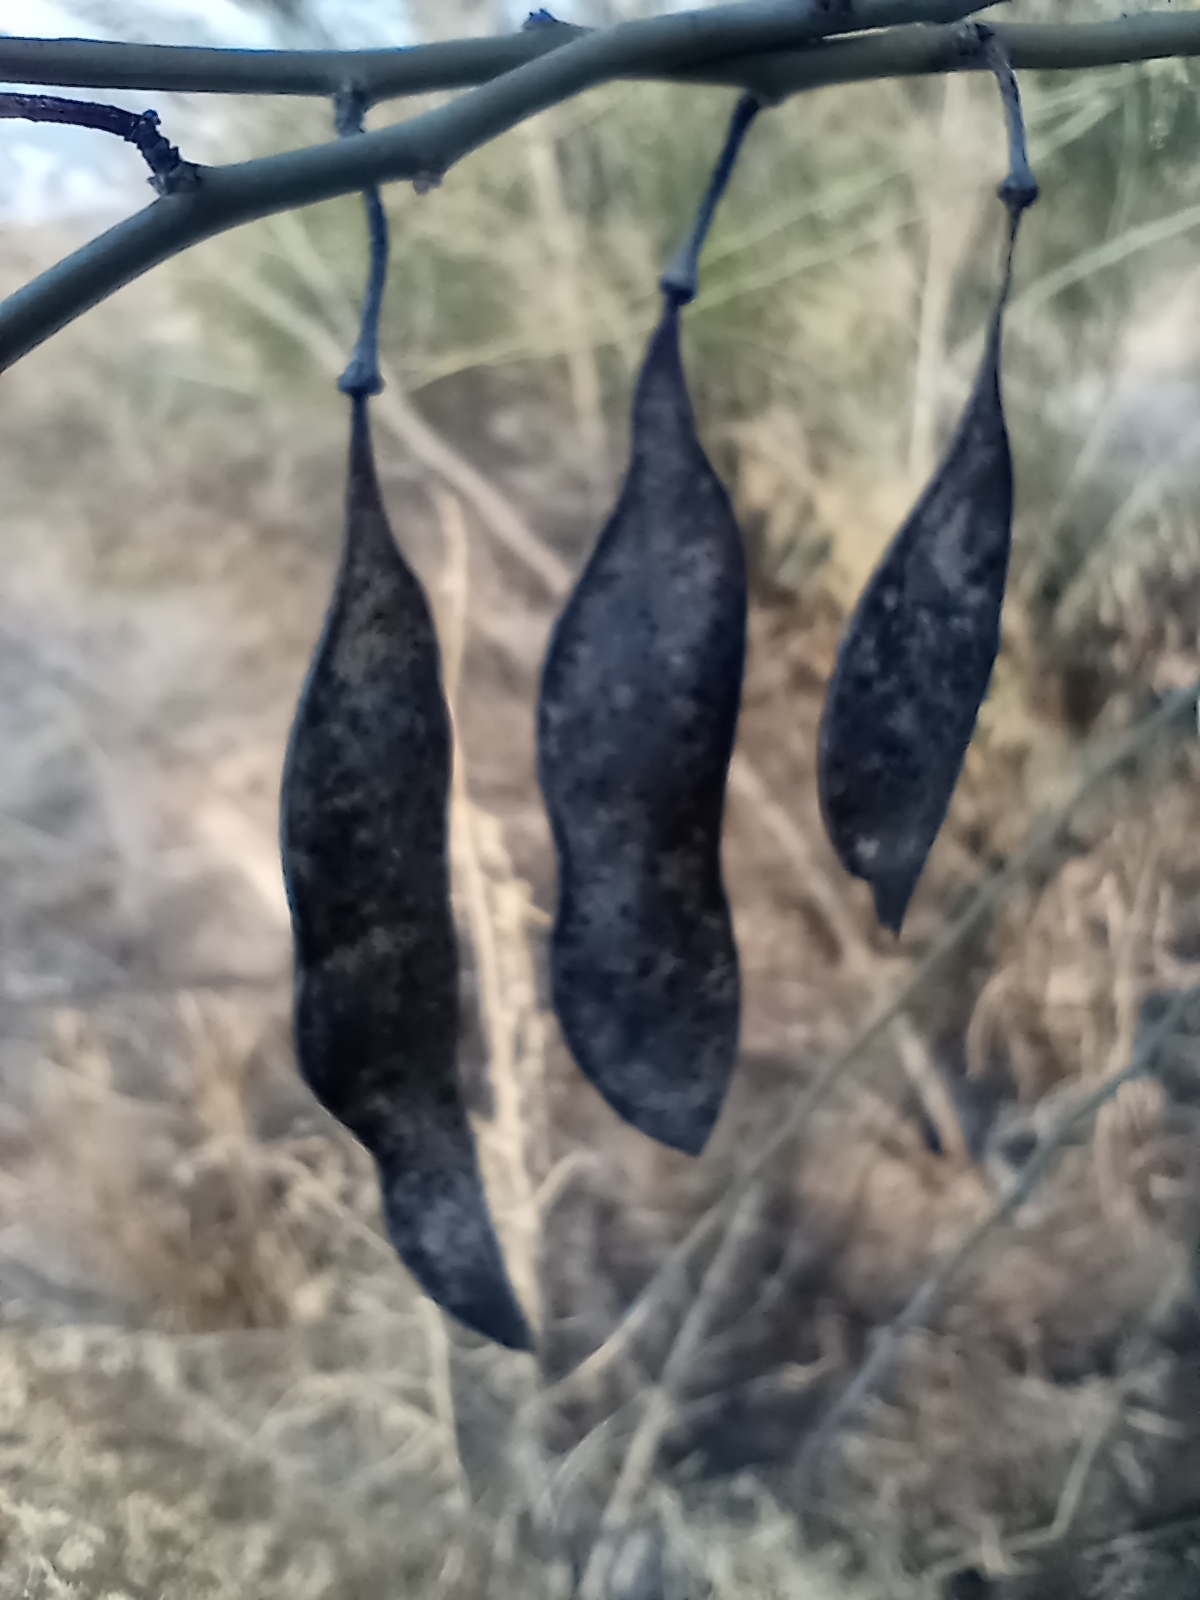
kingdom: Plantae
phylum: Tracheophyta
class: Magnoliopsida
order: Fabales
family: Fabaceae
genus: Parkinsonia
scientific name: Parkinsonia florida
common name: Blue paloverde
